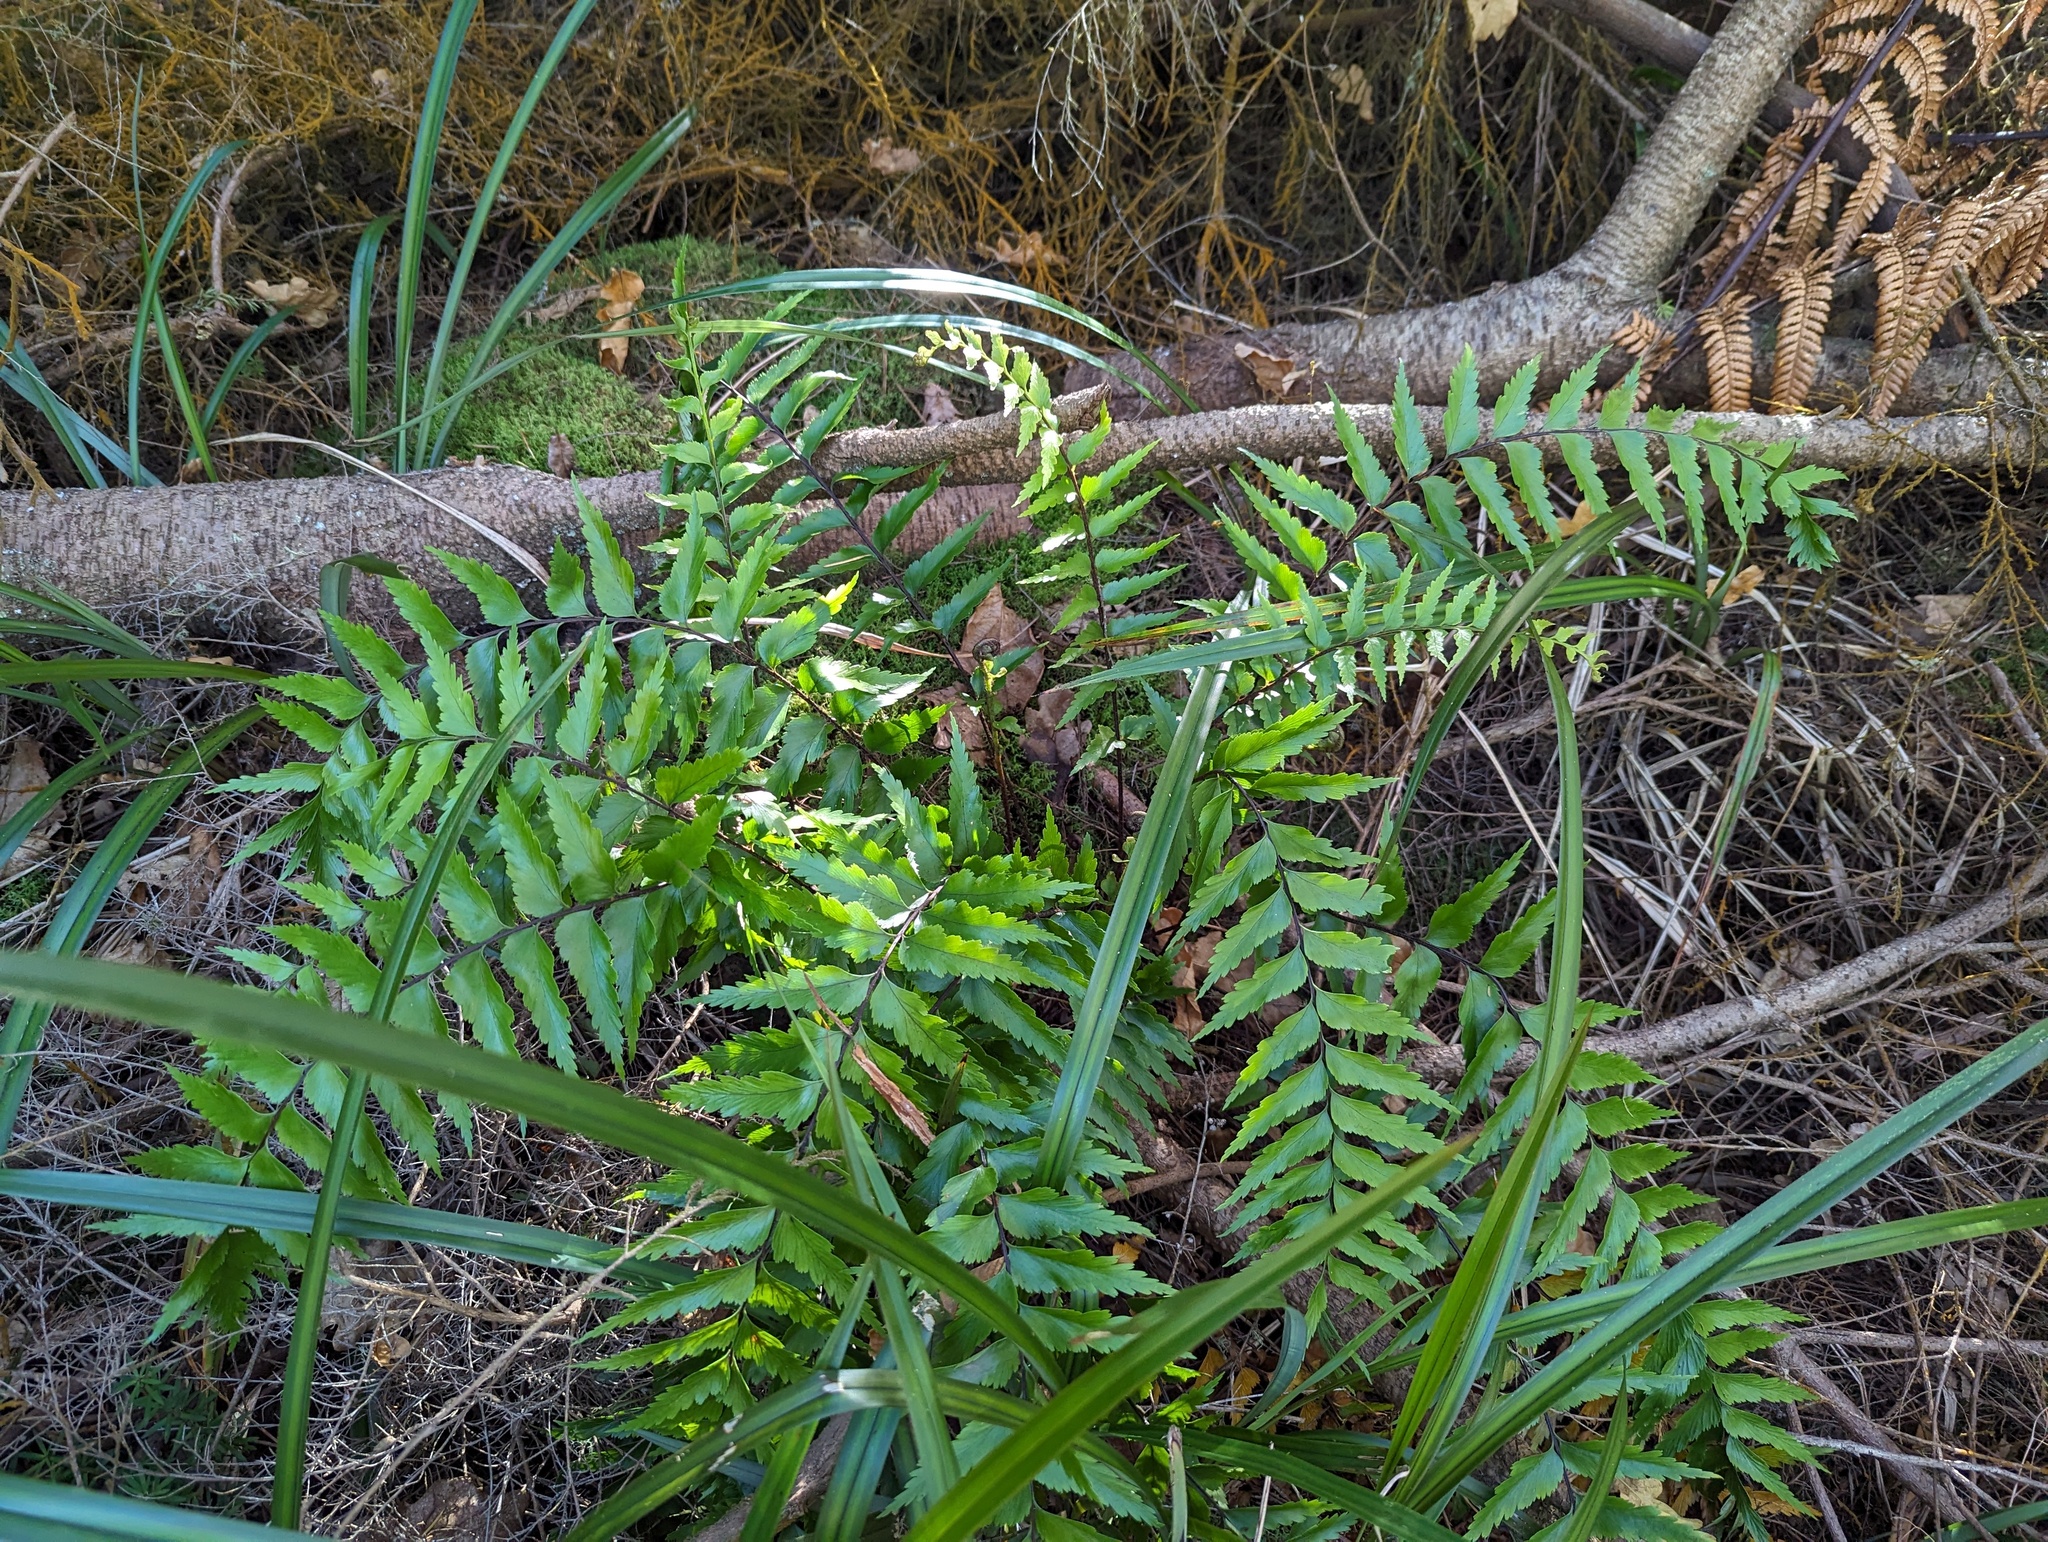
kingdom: Plantae
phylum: Tracheophyta
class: Polypodiopsida
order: Polypodiales
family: Aspleniaceae
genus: Asplenium
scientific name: Asplenium polyodon
